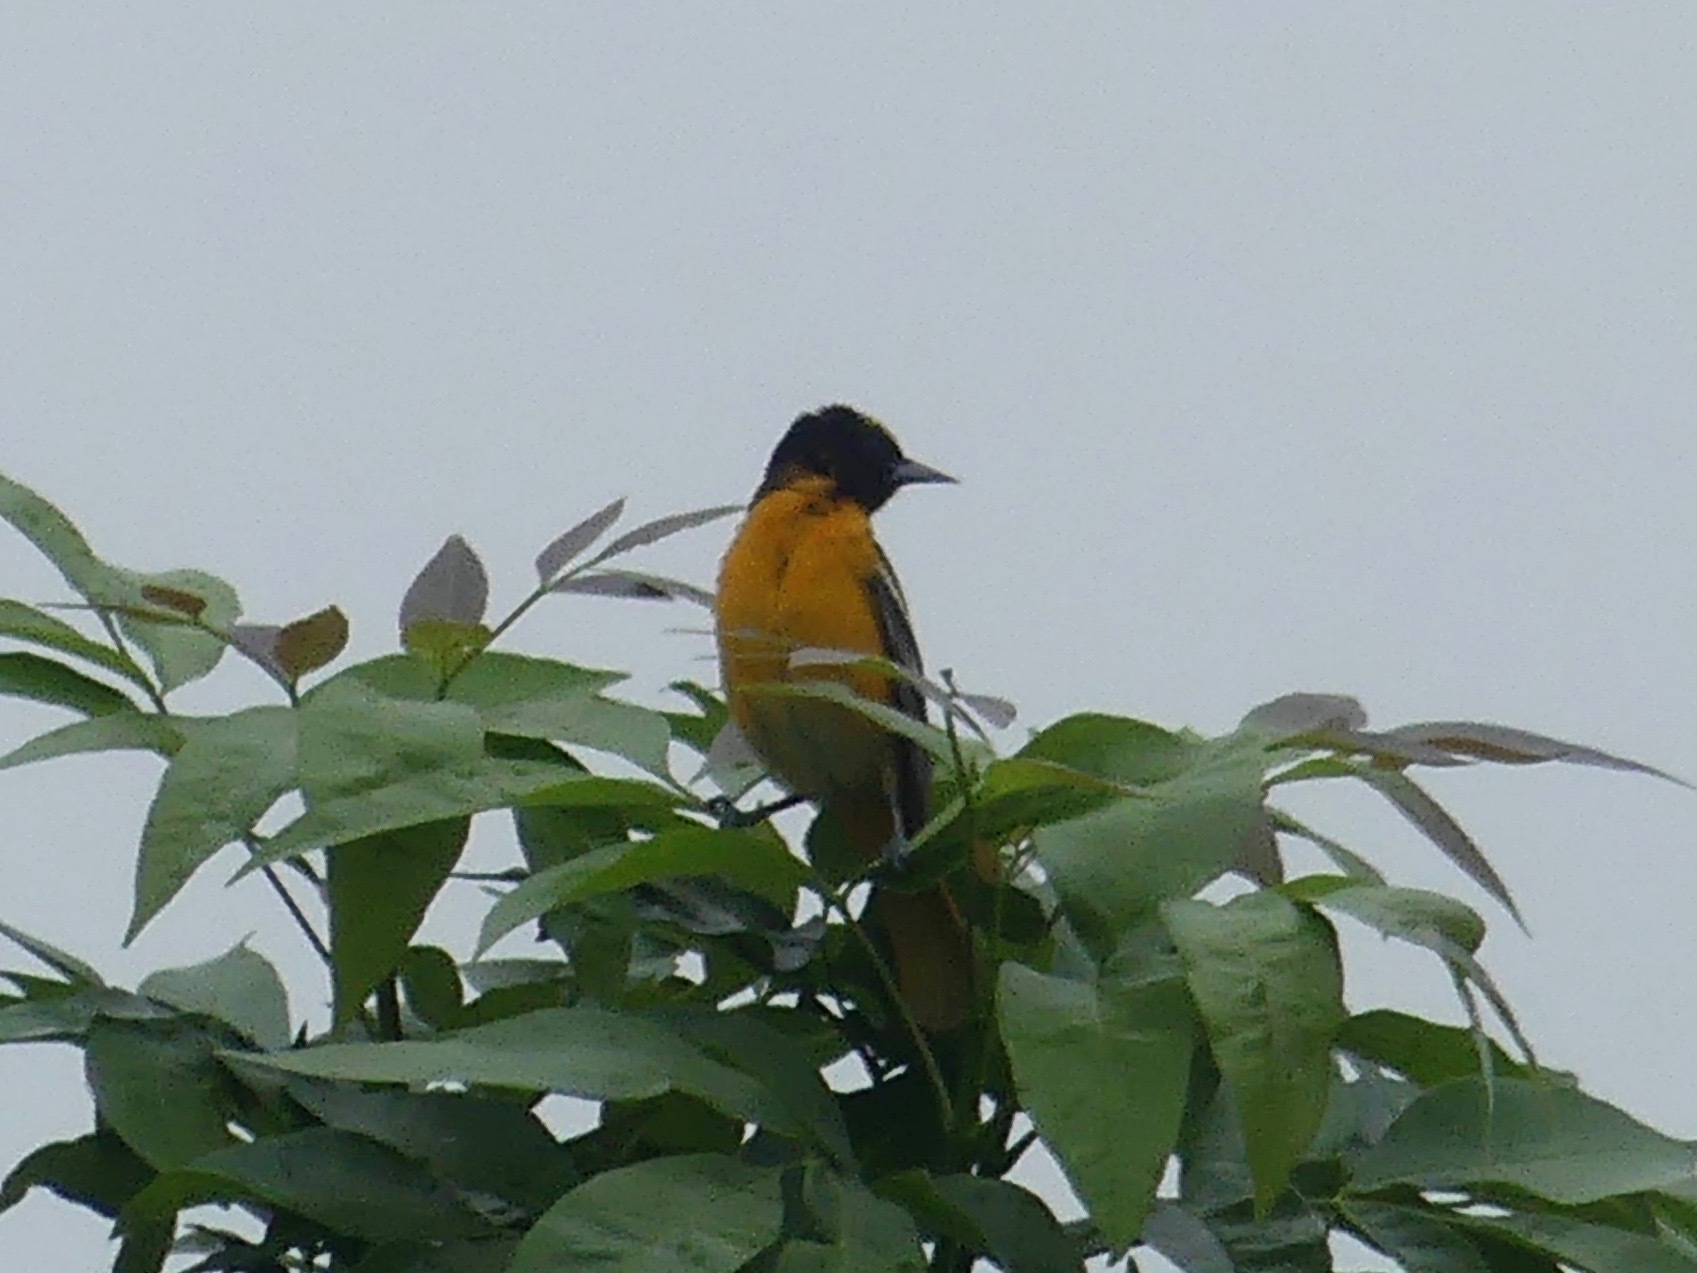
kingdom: Animalia
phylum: Chordata
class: Aves
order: Passeriformes
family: Icteridae
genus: Icterus
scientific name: Icterus galbula
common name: Baltimore oriole
